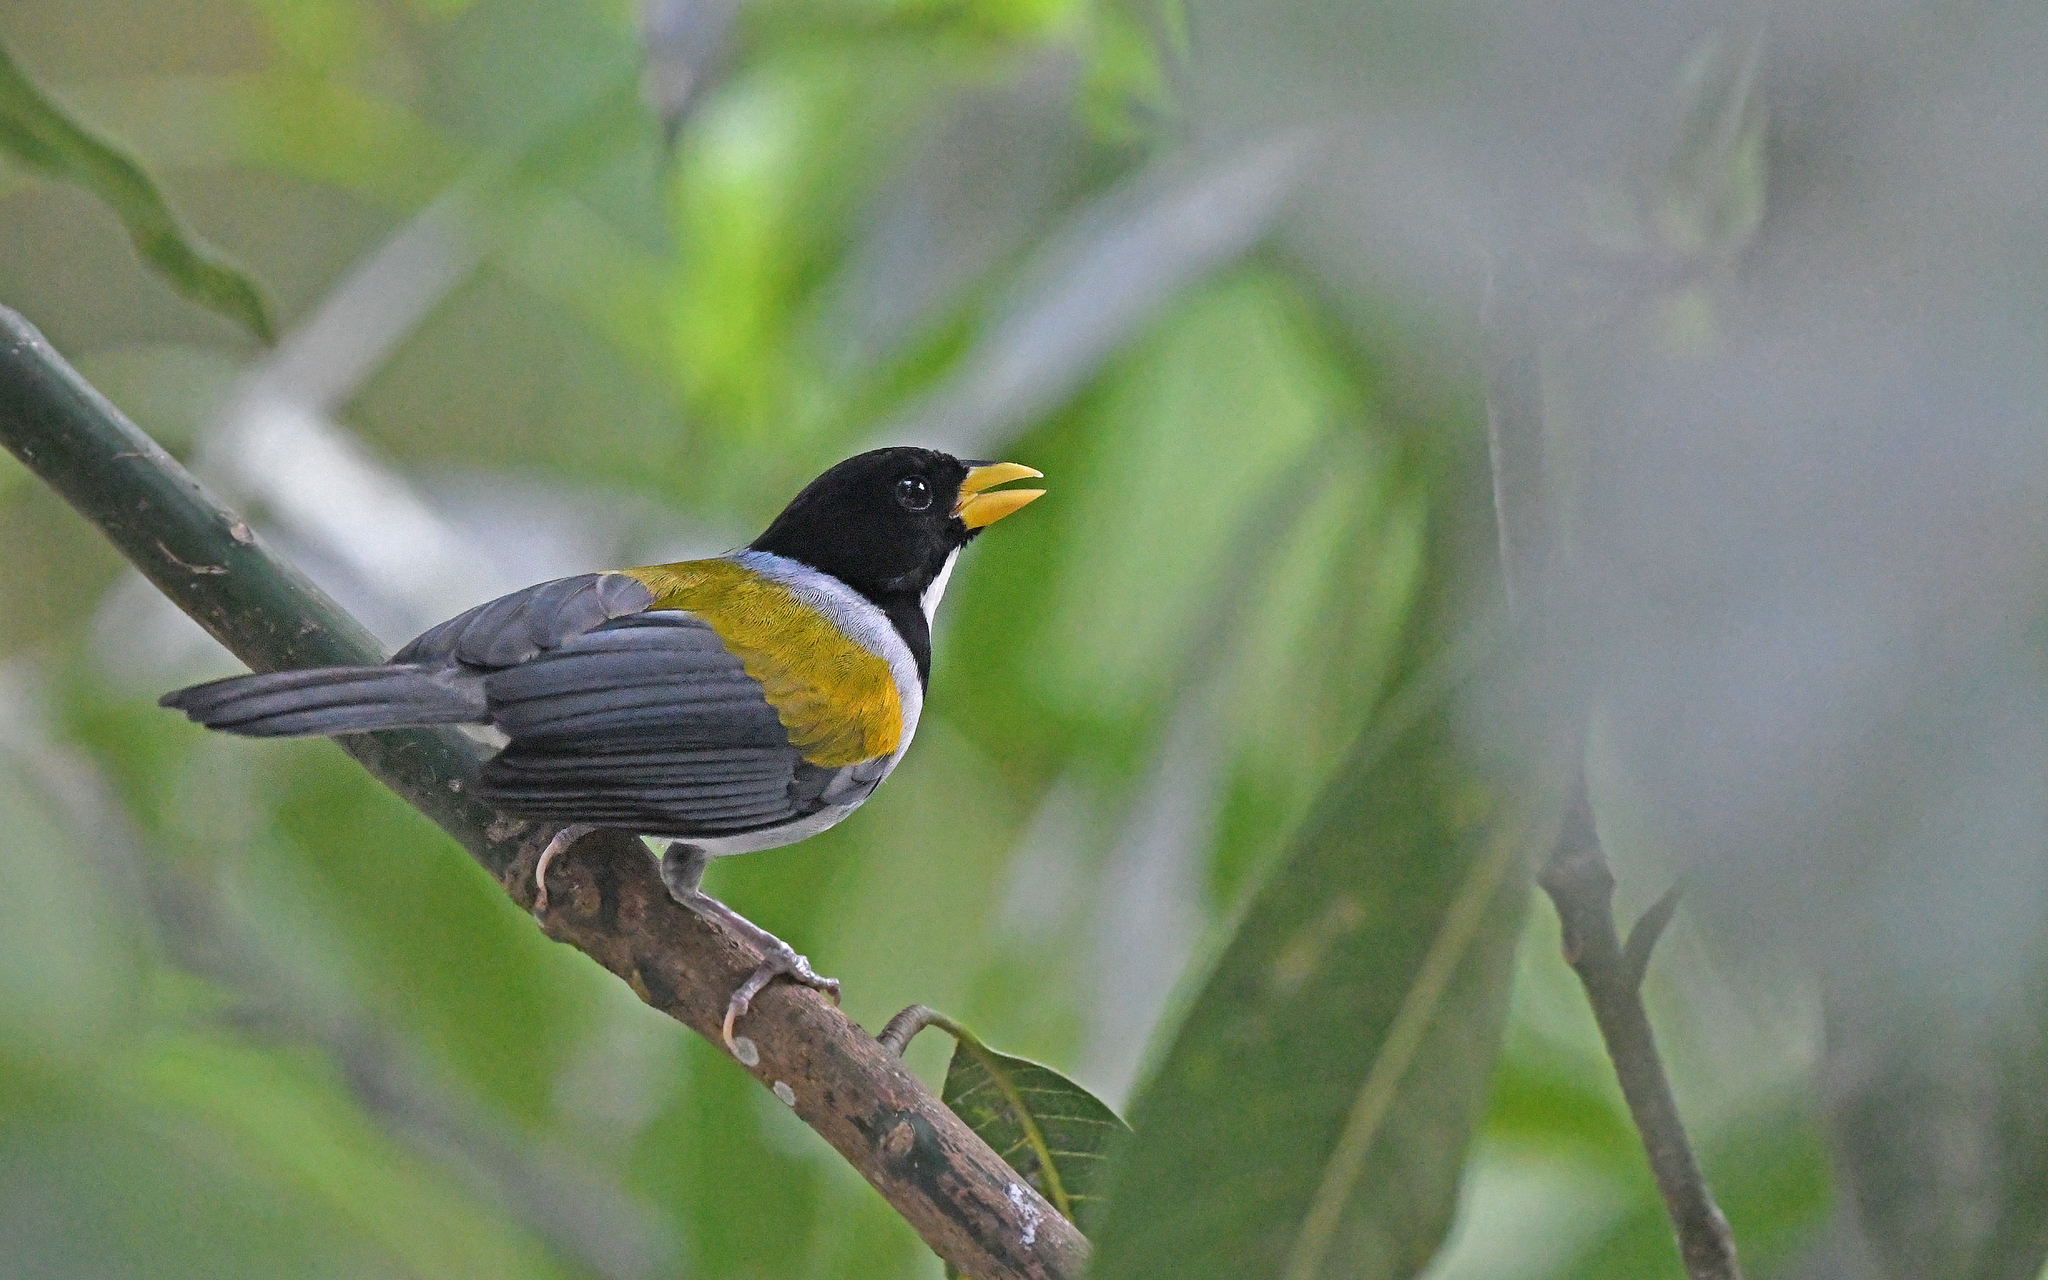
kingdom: Animalia
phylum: Chordata
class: Aves
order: Passeriformes
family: Passerellidae
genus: Arremon
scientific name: Arremon schlegeli
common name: Golden-winged sparrow
